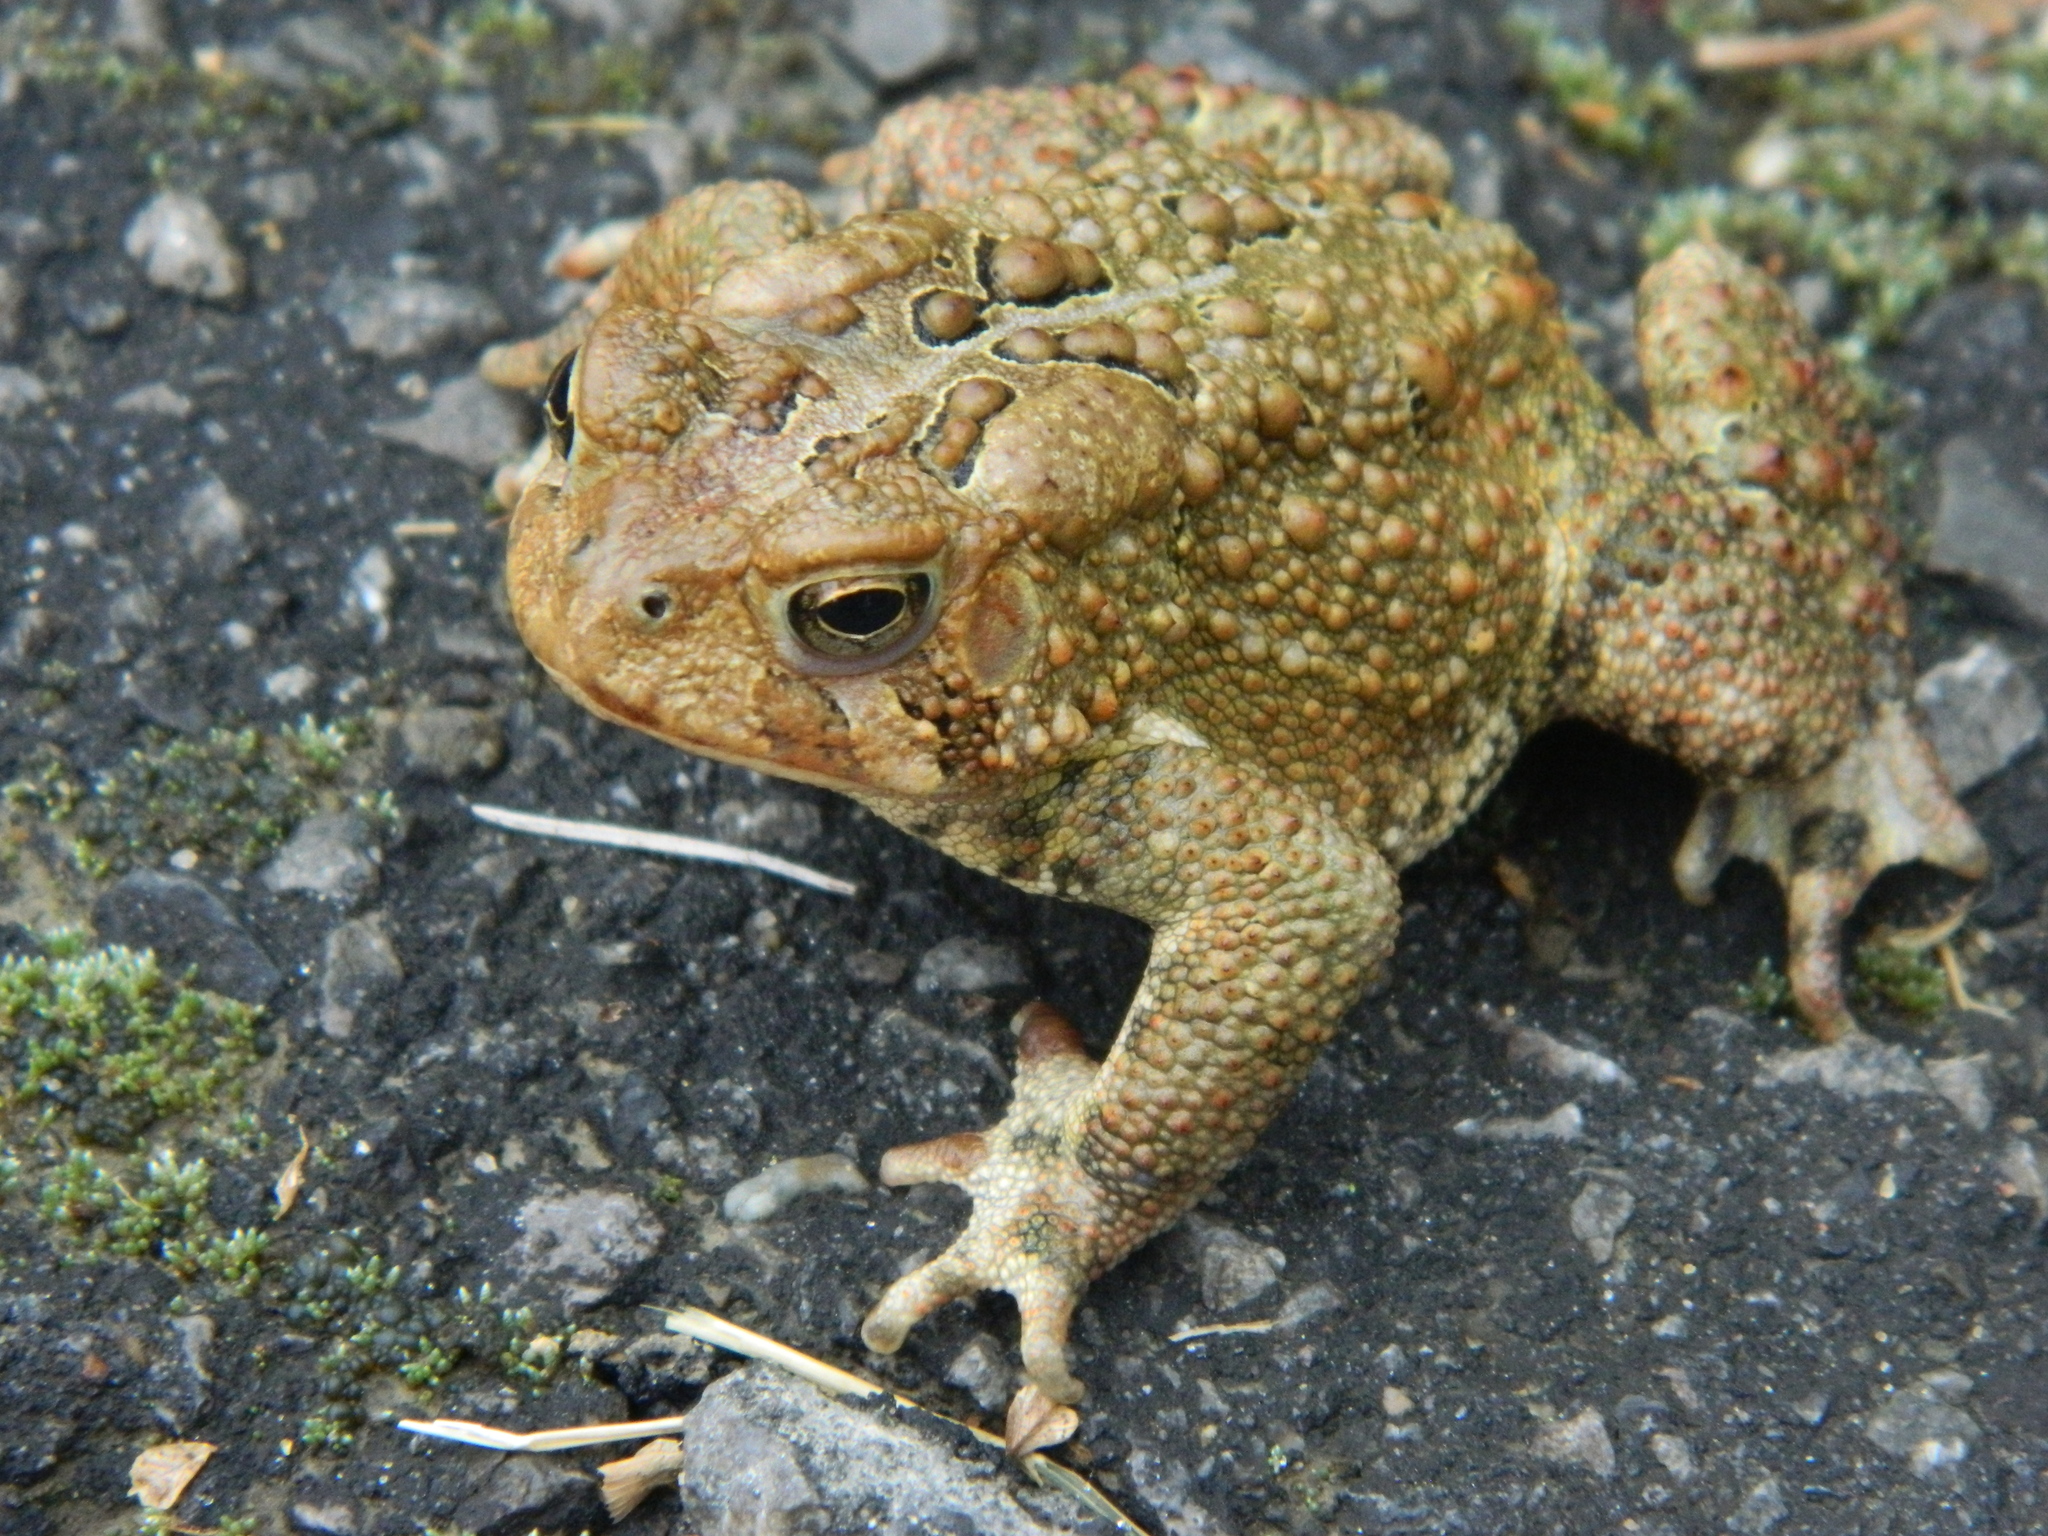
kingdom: Animalia
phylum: Chordata
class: Amphibia
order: Anura
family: Bufonidae
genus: Anaxyrus
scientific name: Anaxyrus americanus
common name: American toad
